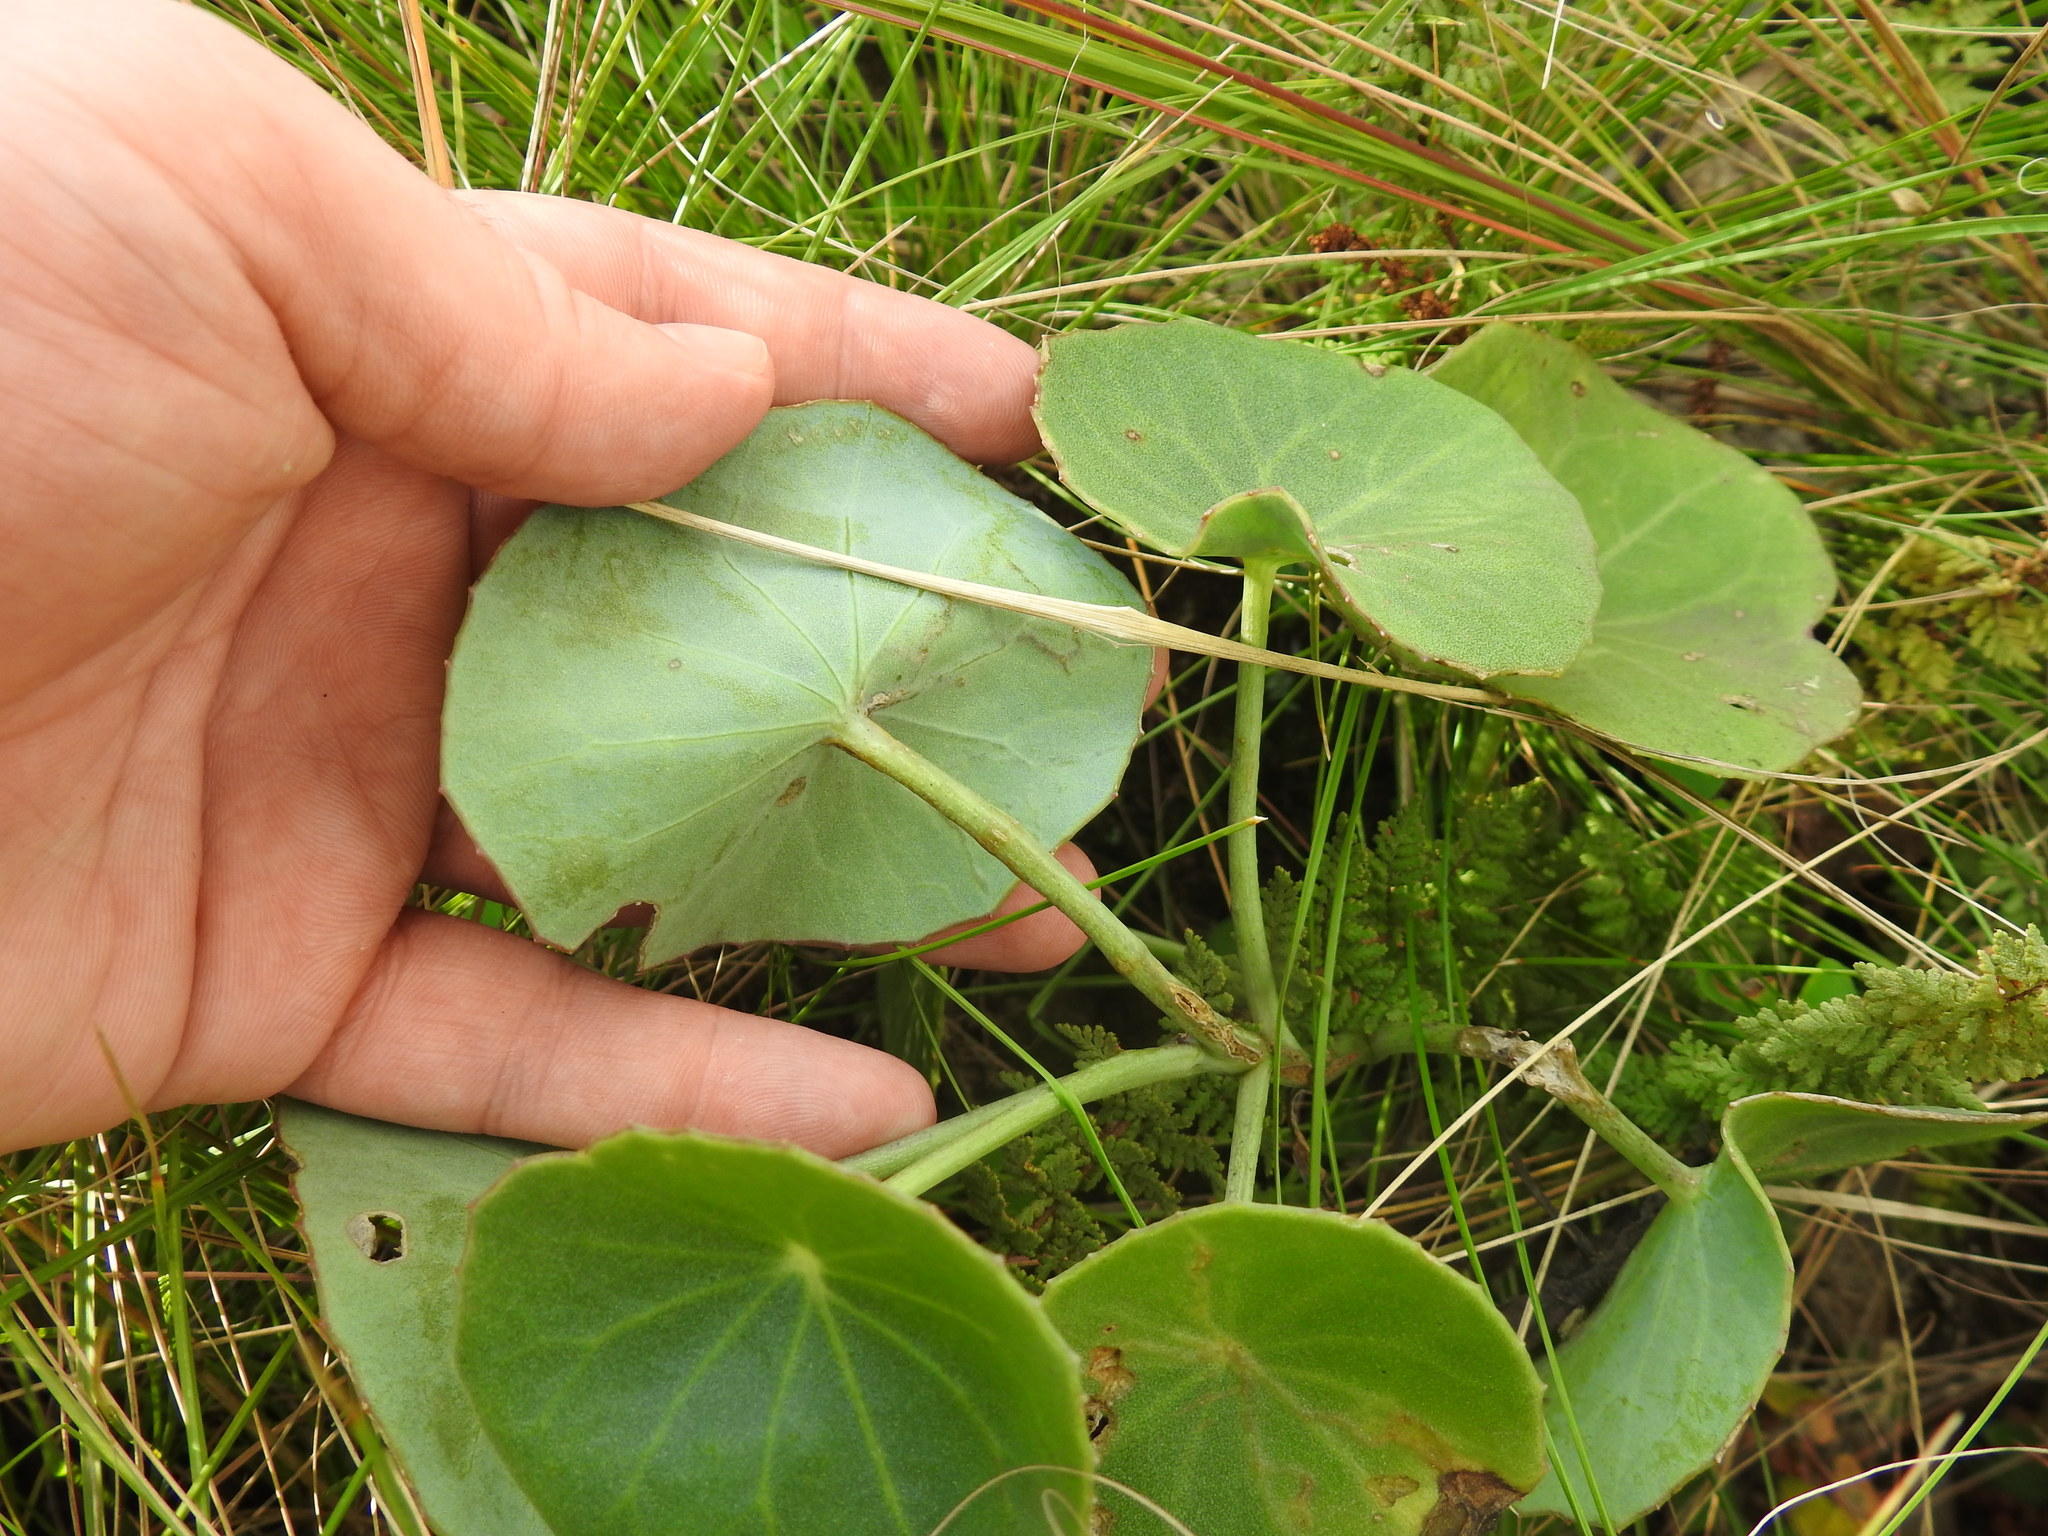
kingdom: Plantae
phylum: Tracheophyta
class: Magnoliopsida
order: Asterales
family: Asteraceae
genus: Senecio
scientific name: Senecio oxyriifolius
